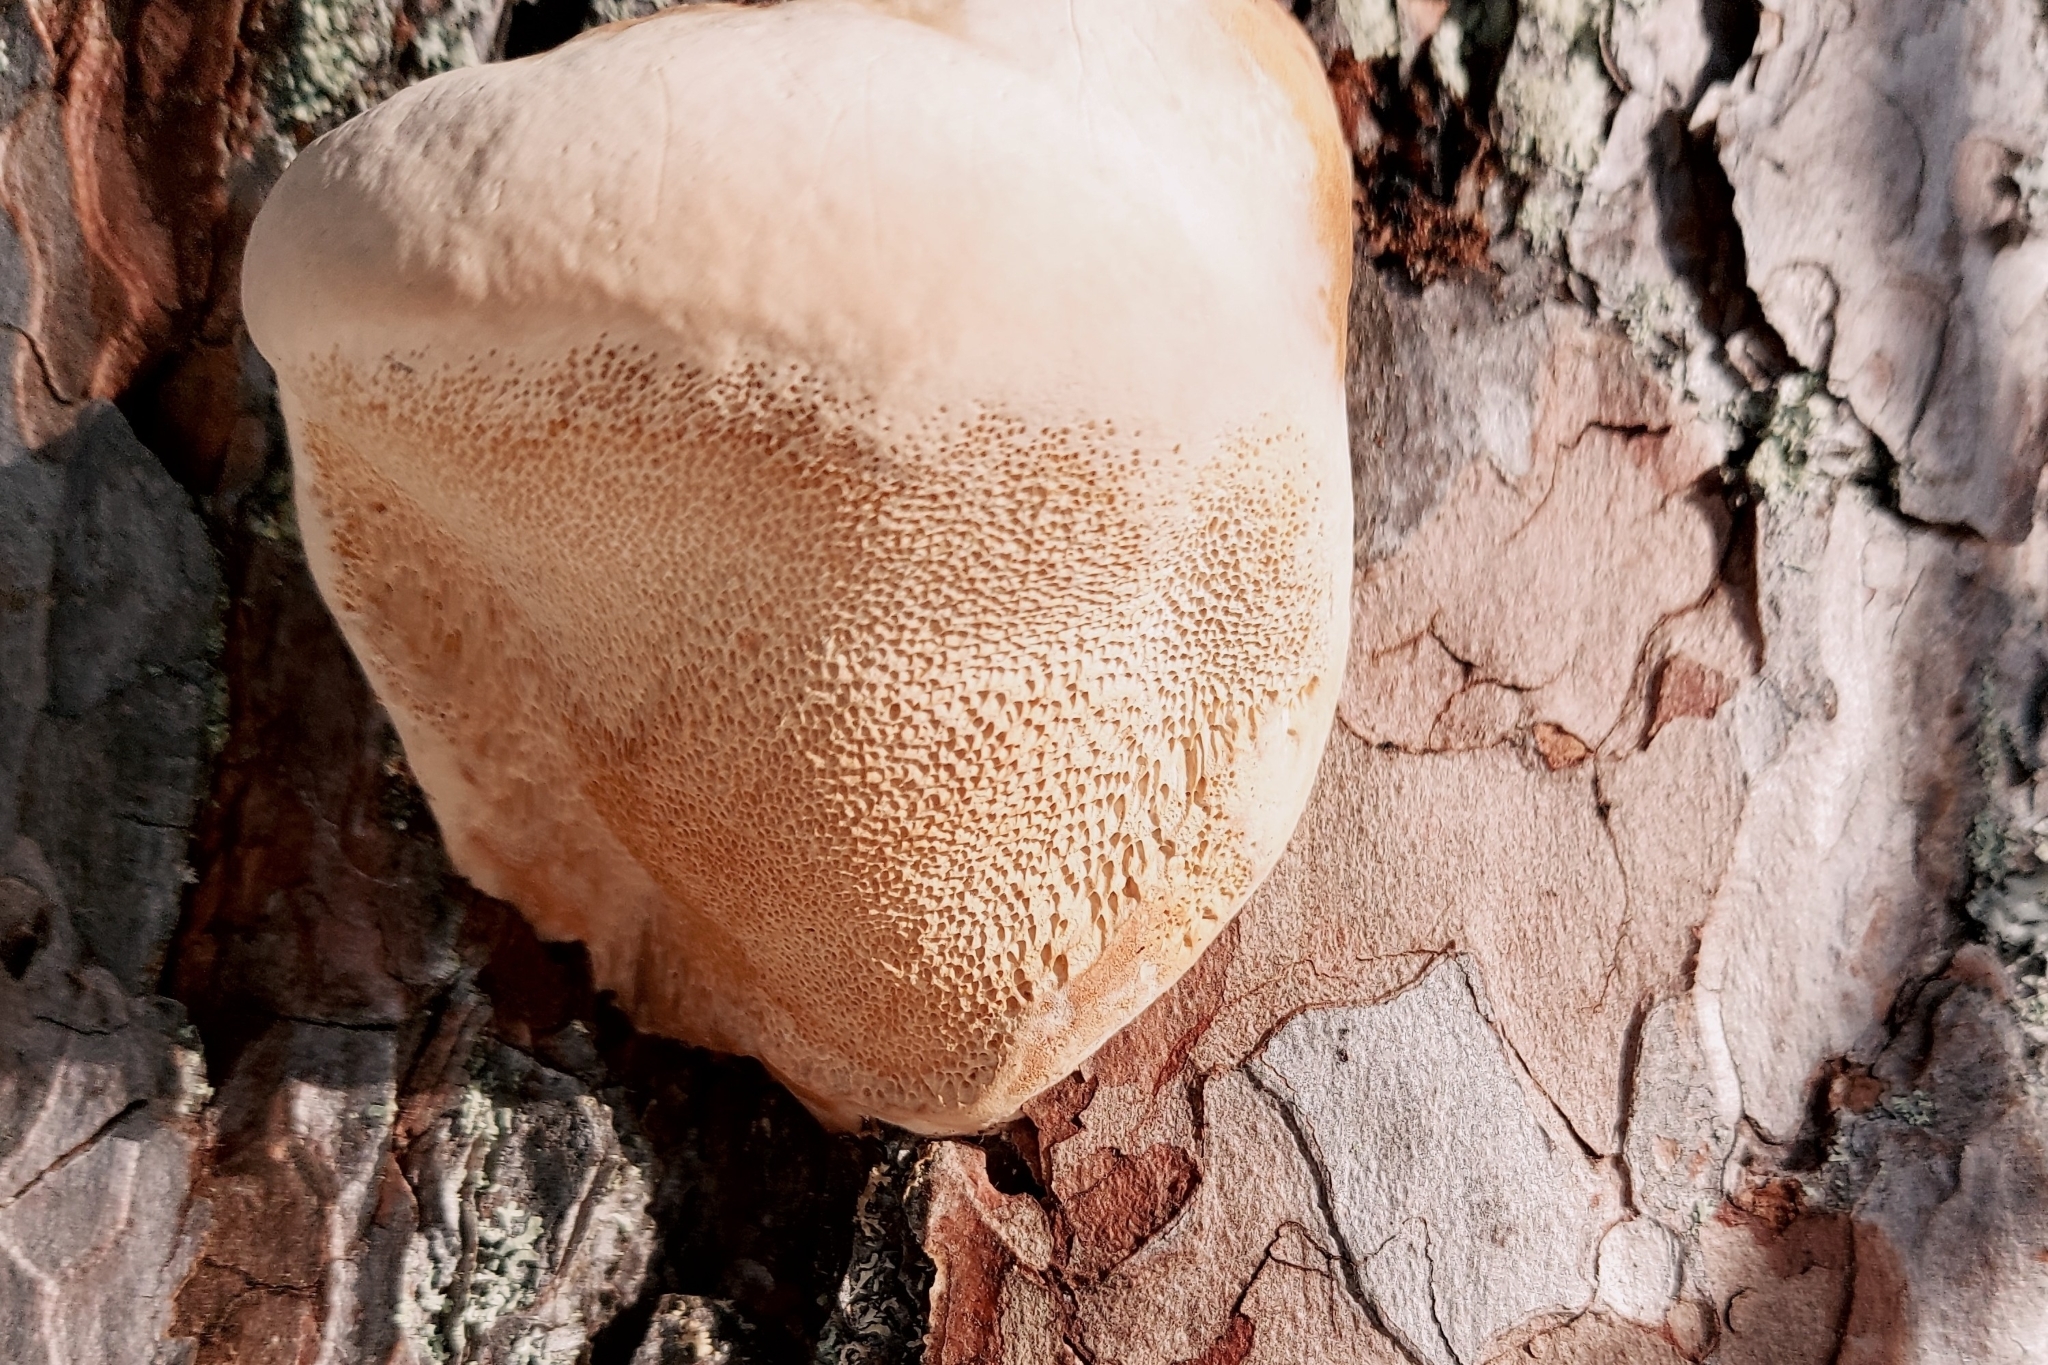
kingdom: Fungi
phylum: Basidiomycota
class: Agaricomycetes
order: Polyporales
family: Fomitopsidaceae
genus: Fomitopsis
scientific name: Fomitopsis pinicola
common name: Red-belted bracket
